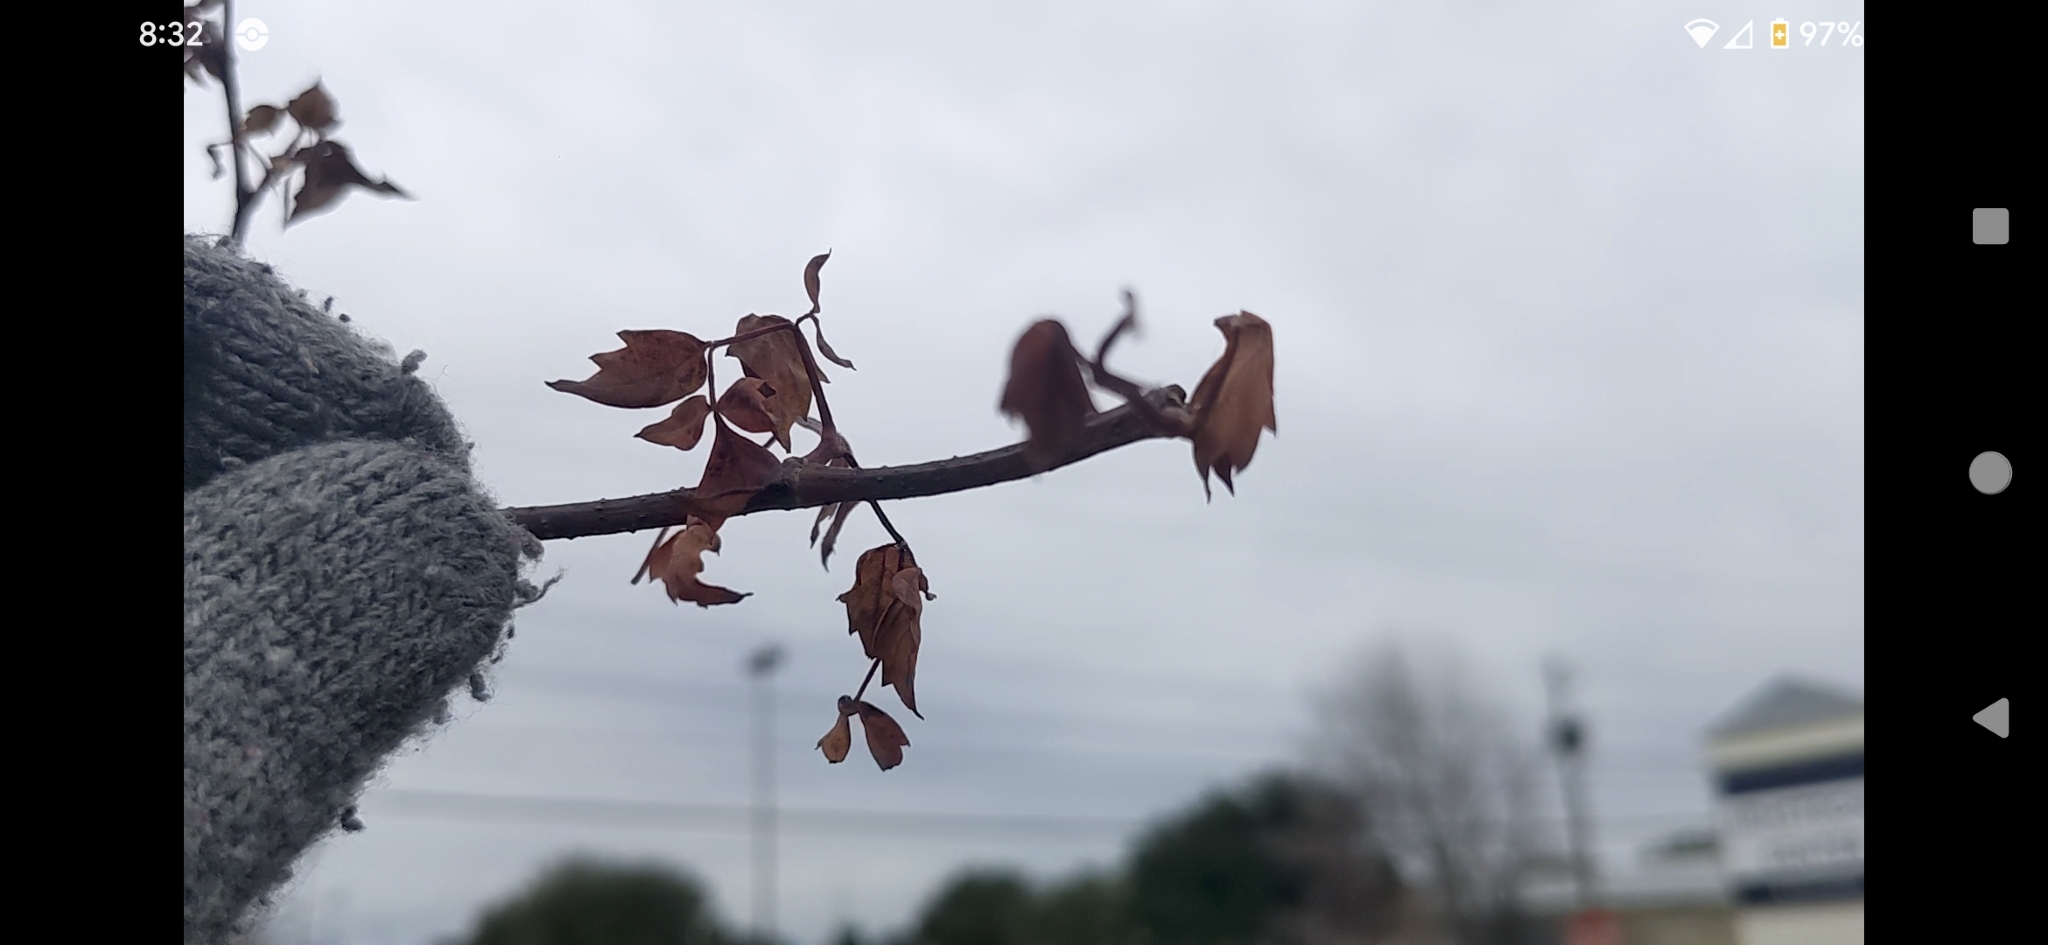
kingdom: Plantae
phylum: Tracheophyta
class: Magnoliopsida
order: Vitales
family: Vitaceae
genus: Nekemias
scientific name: Nekemias arborea
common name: Peppervine
